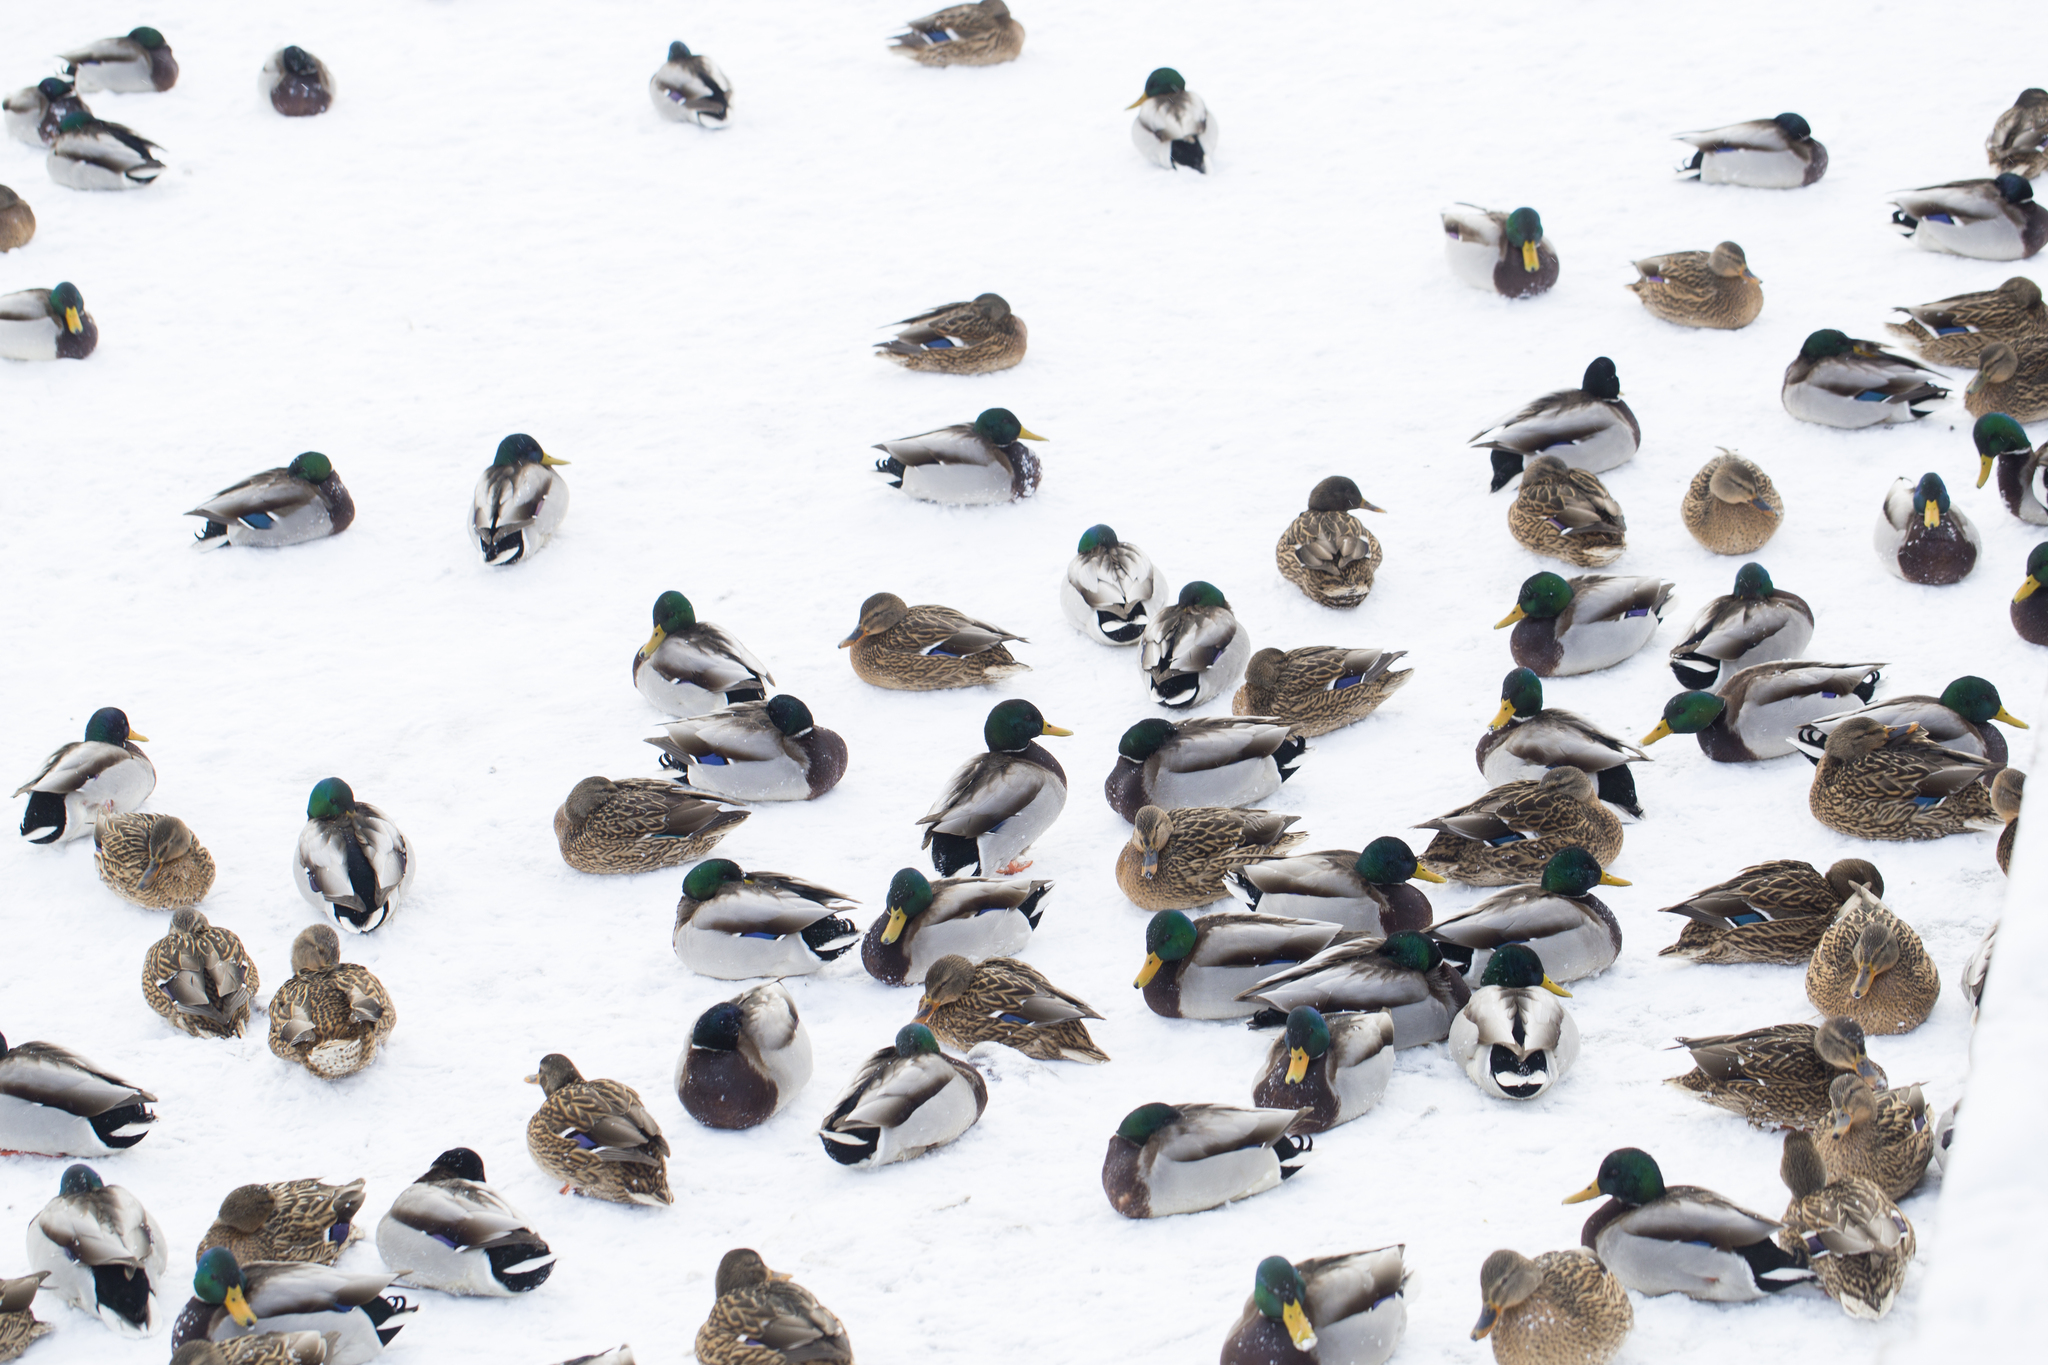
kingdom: Animalia
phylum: Chordata
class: Aves
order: Anseriformes
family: Anatidae
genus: Anas
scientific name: Anas platyrhynchos
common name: Mallard
